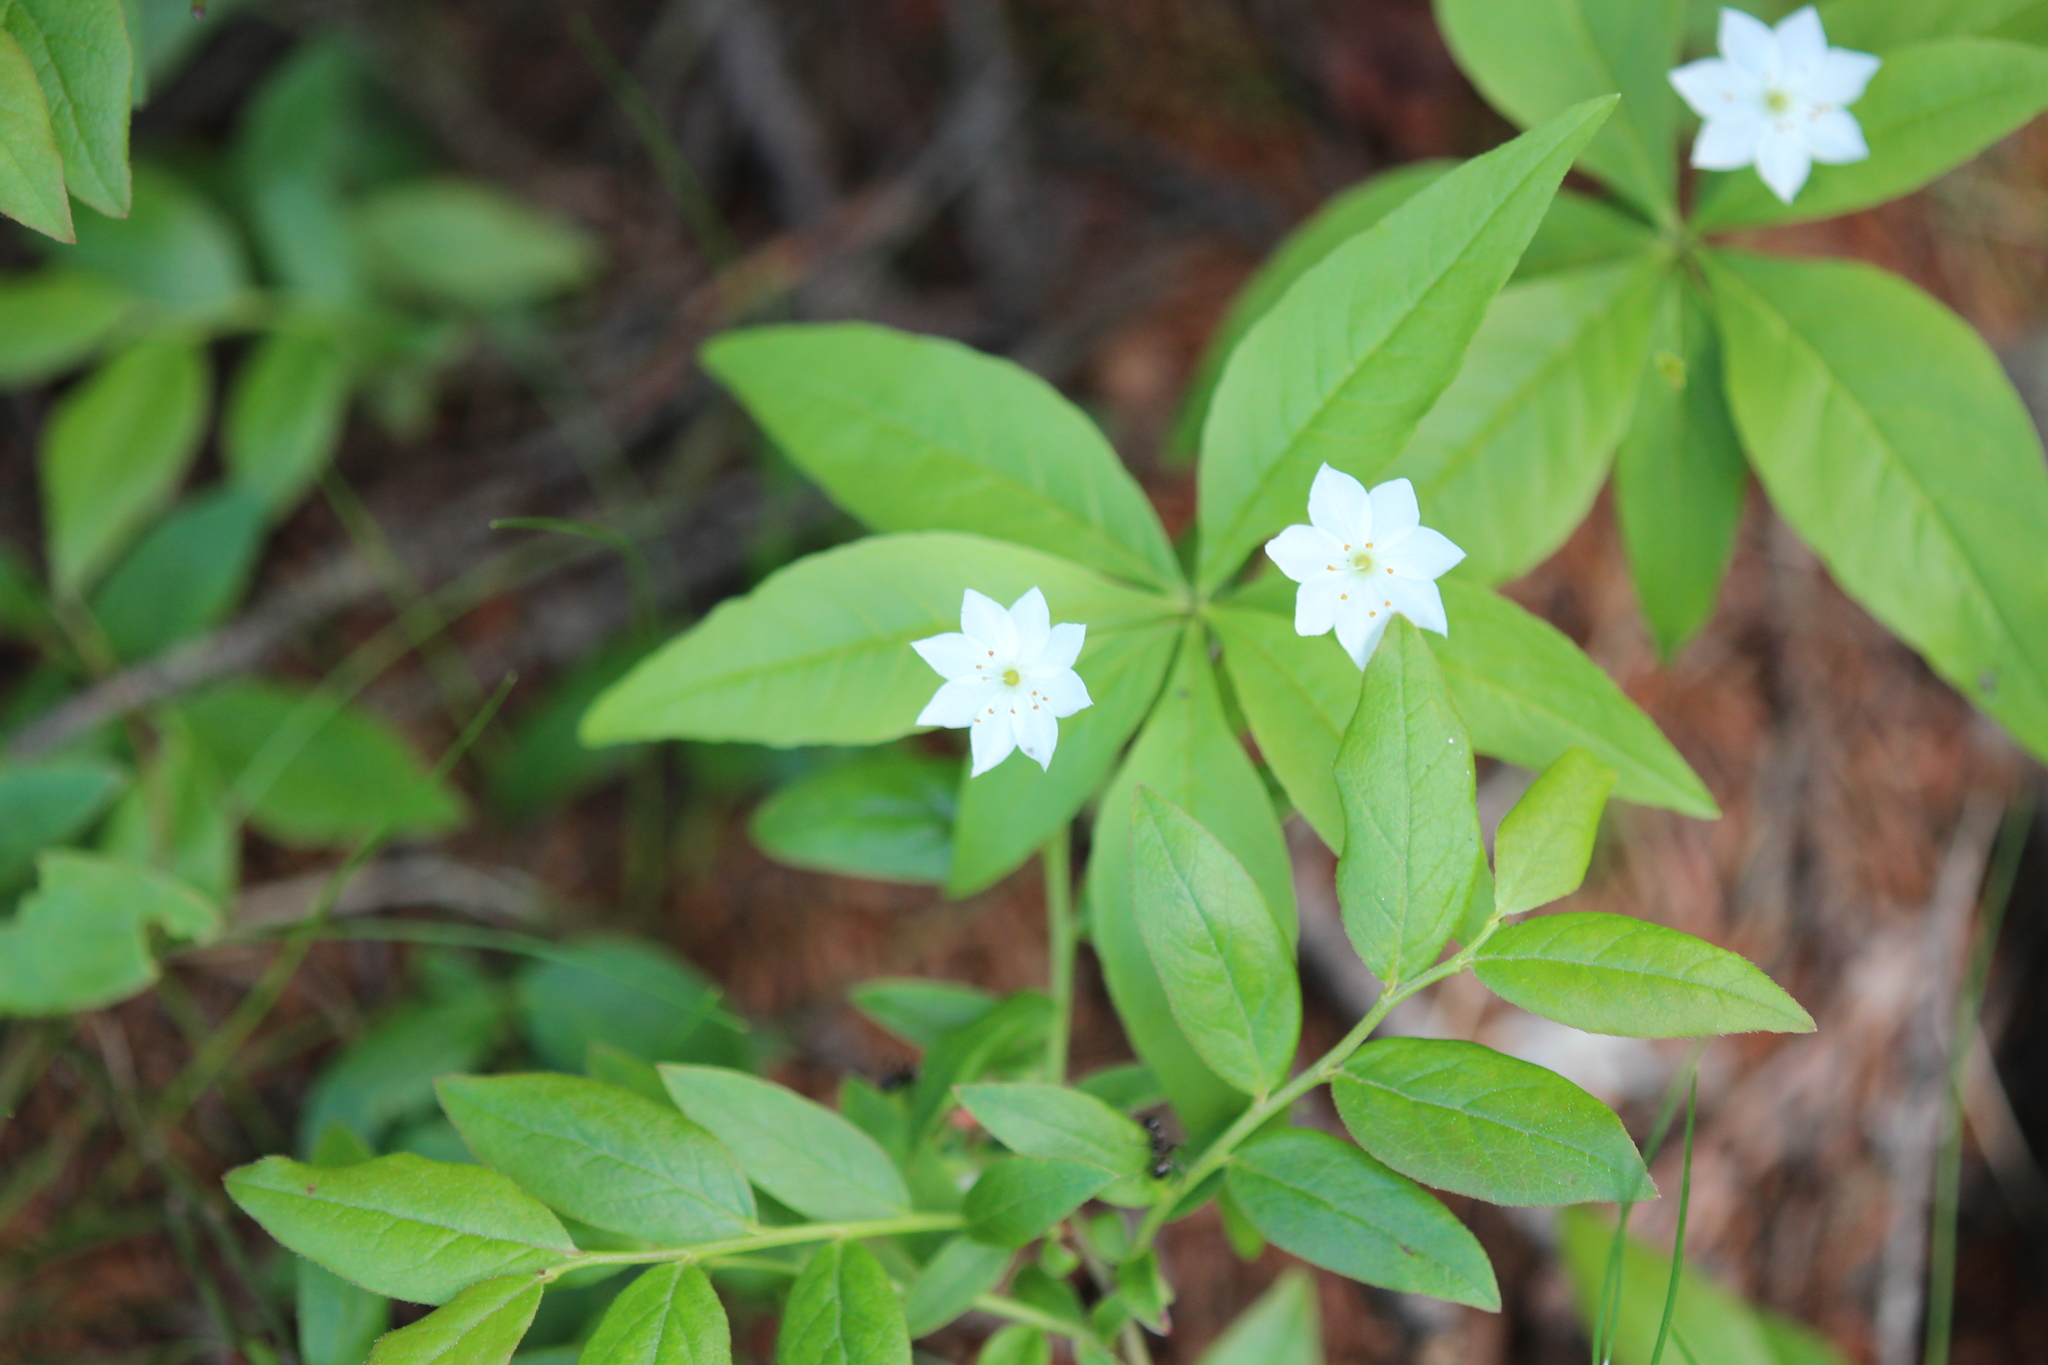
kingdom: Plantae
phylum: Tracheophyta
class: Magnoliopsida
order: Ericales
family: Primulaceae
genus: Lysimachia
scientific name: Lysimachia borealis
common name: American starflower
